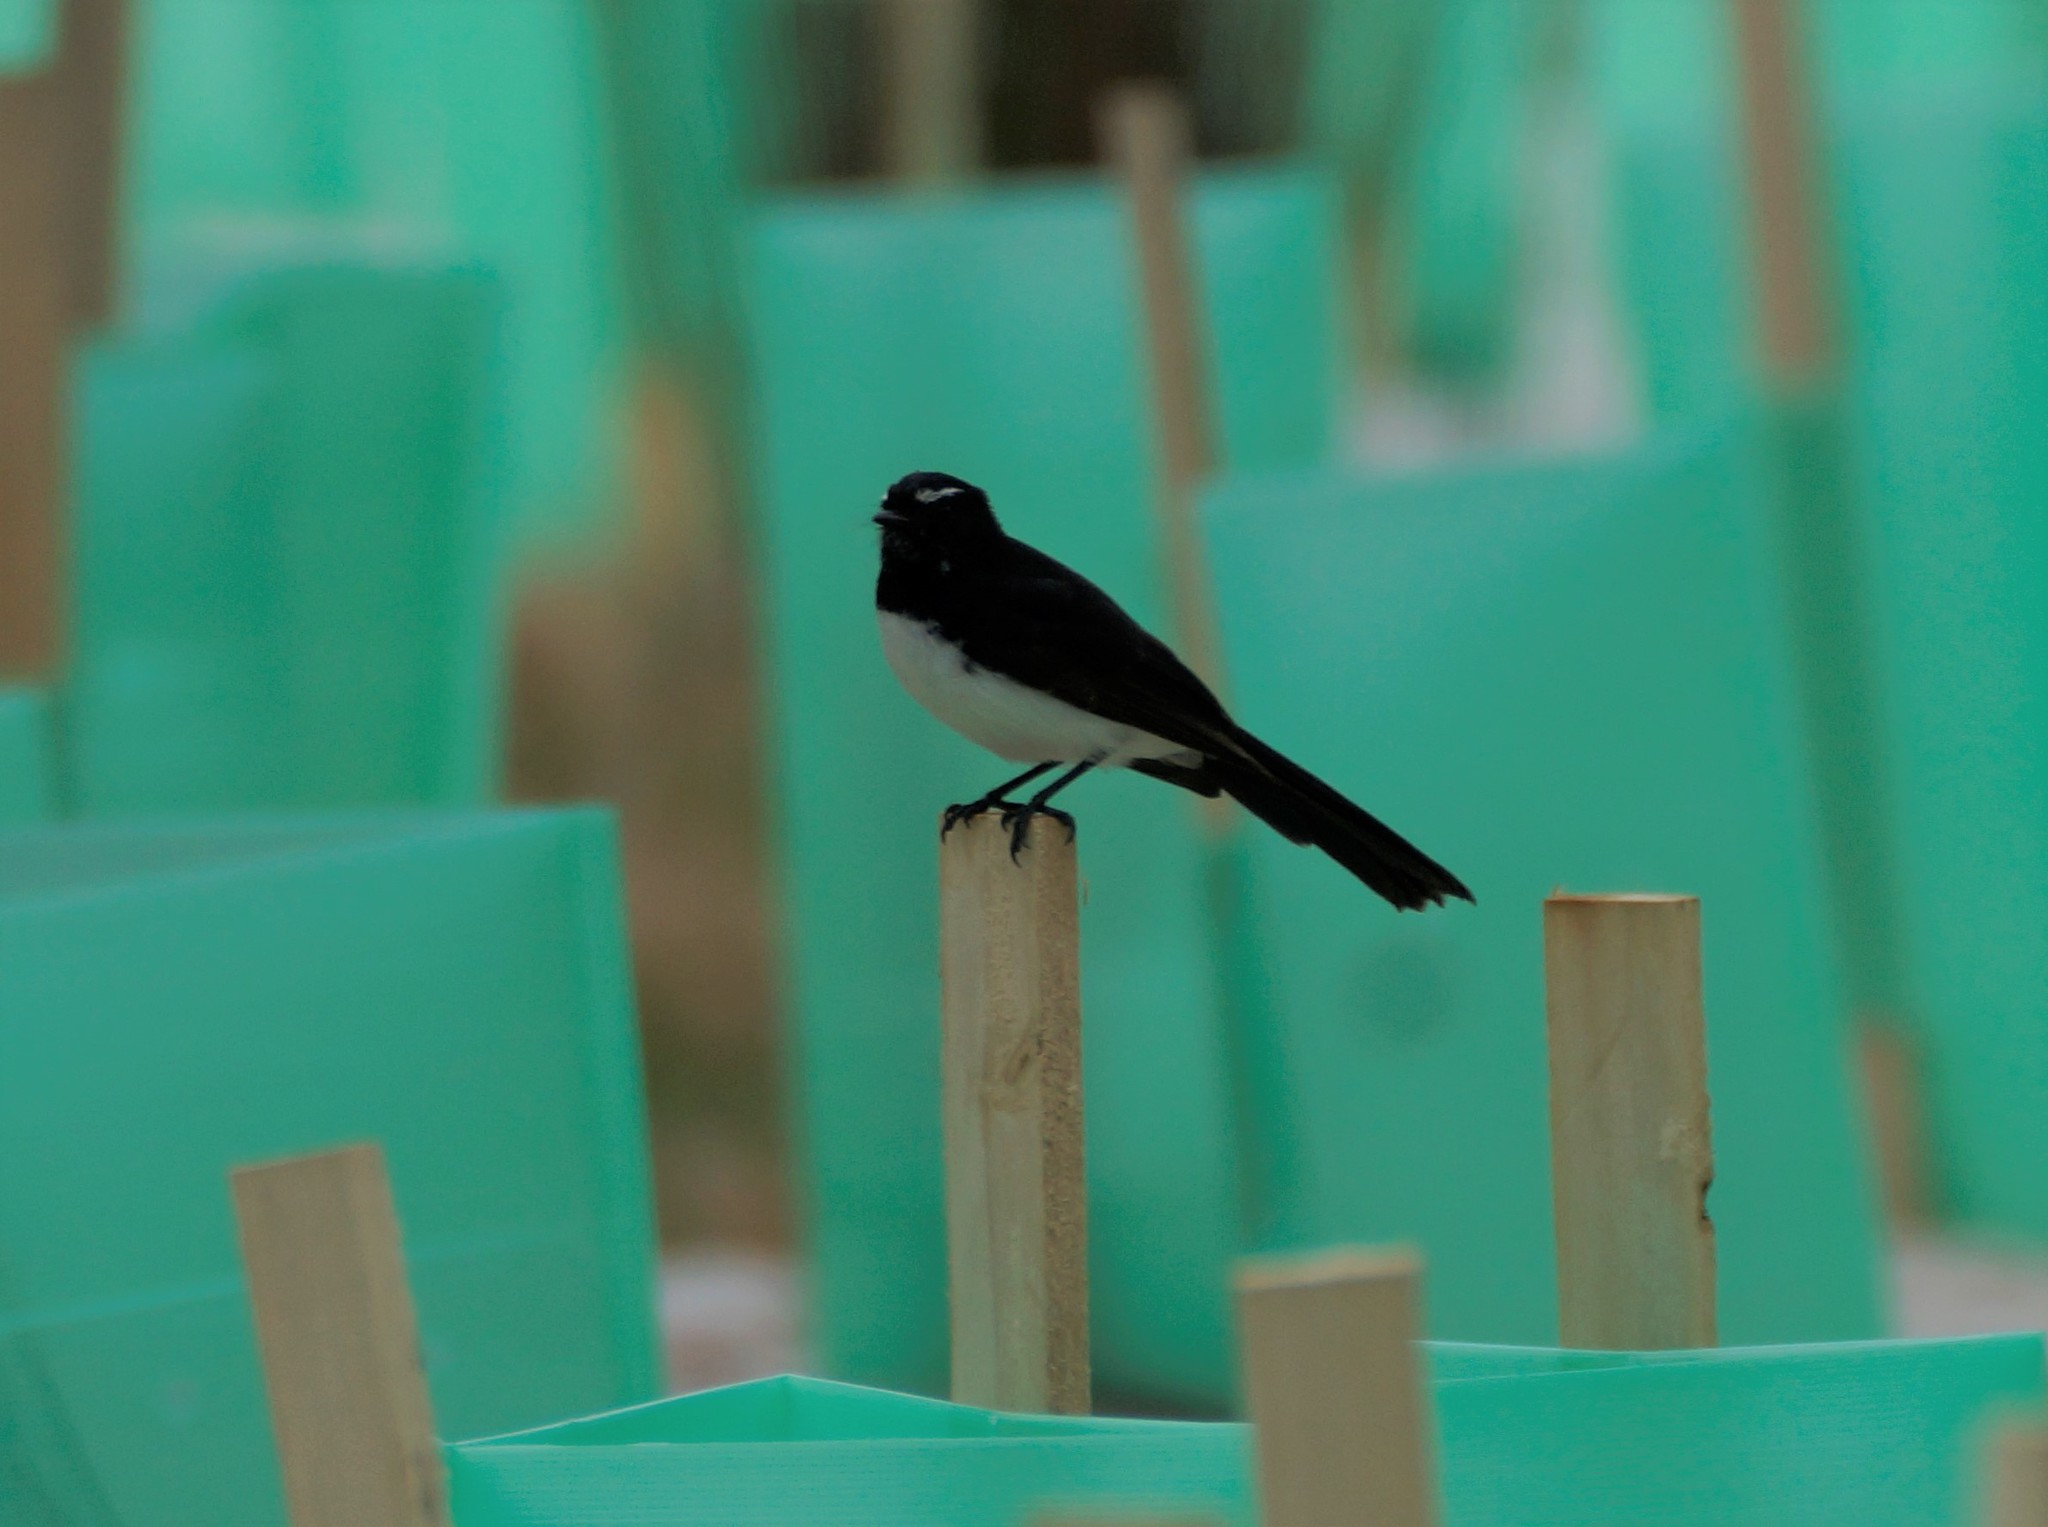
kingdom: Animalia
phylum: Chordata
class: Aves
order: Passeriformes
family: Rhipiduridae
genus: Rhipidura
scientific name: Rhipidura leucophrys
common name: Willie wagtail
